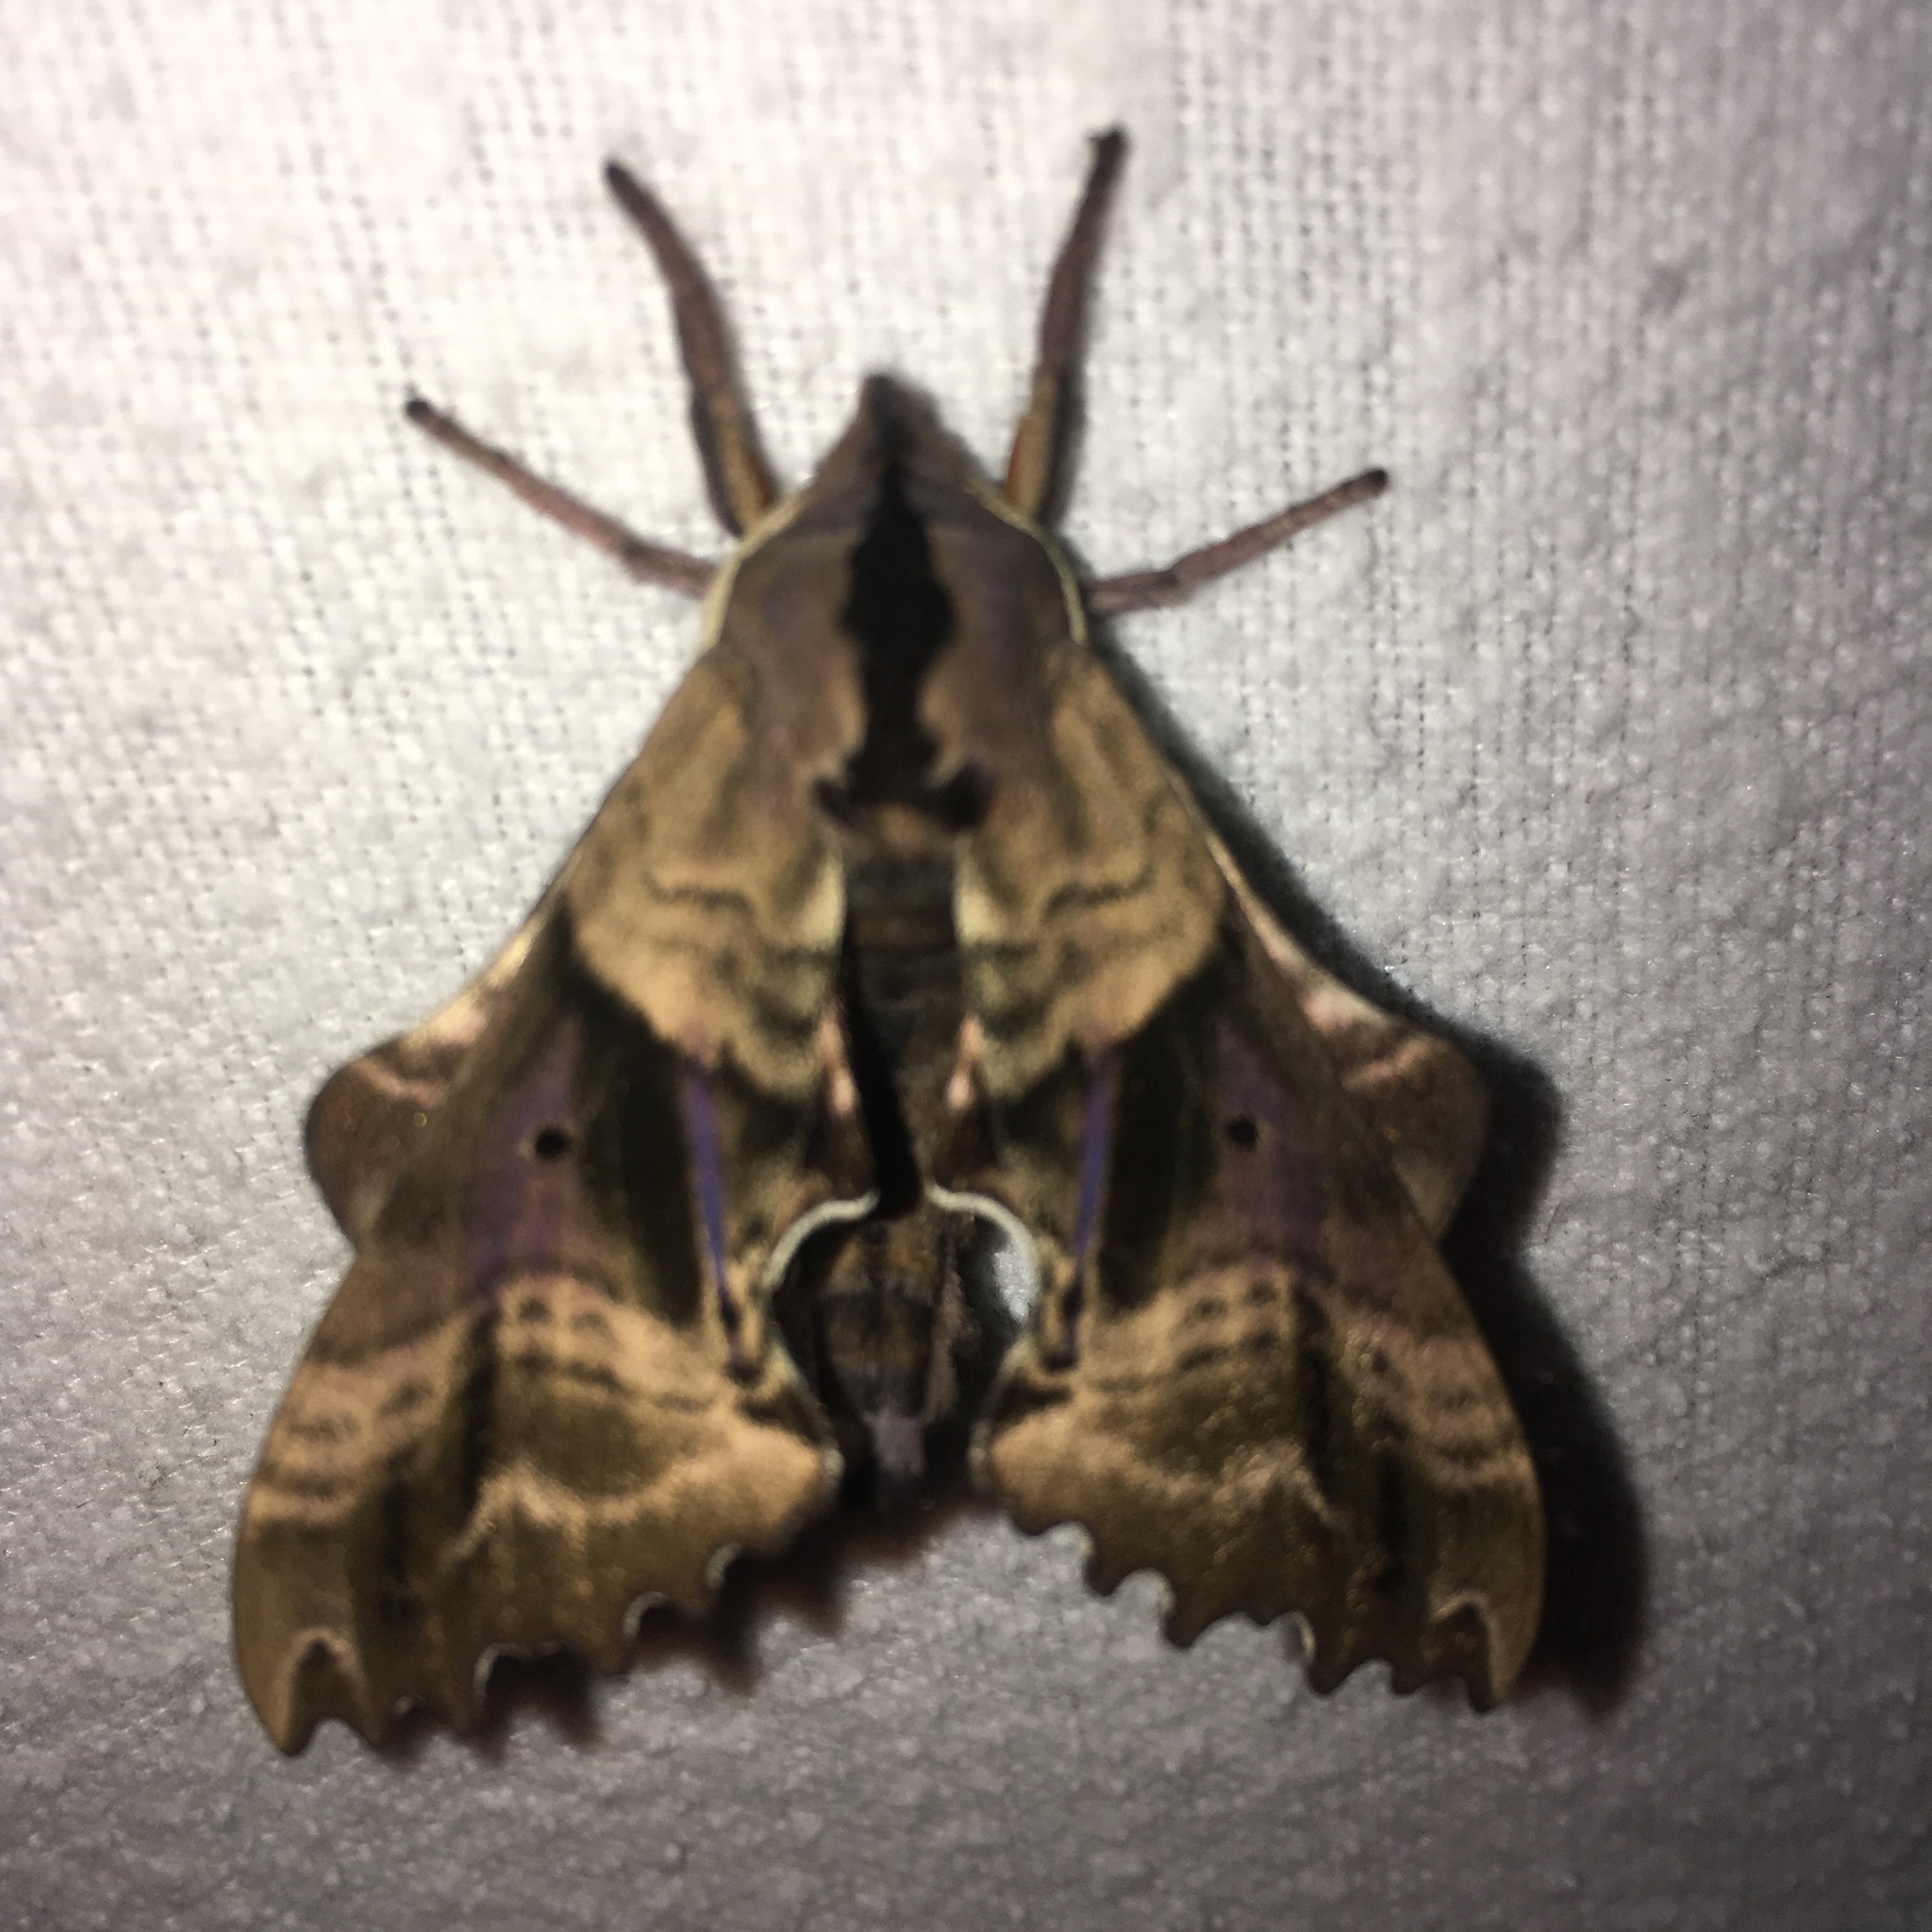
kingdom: Animalia
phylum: Arthropoda
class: Insecta
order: Lepidoptera
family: Sphingidae
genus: Paonias
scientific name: Paonias excaecata
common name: Blind-eyed sphinx
